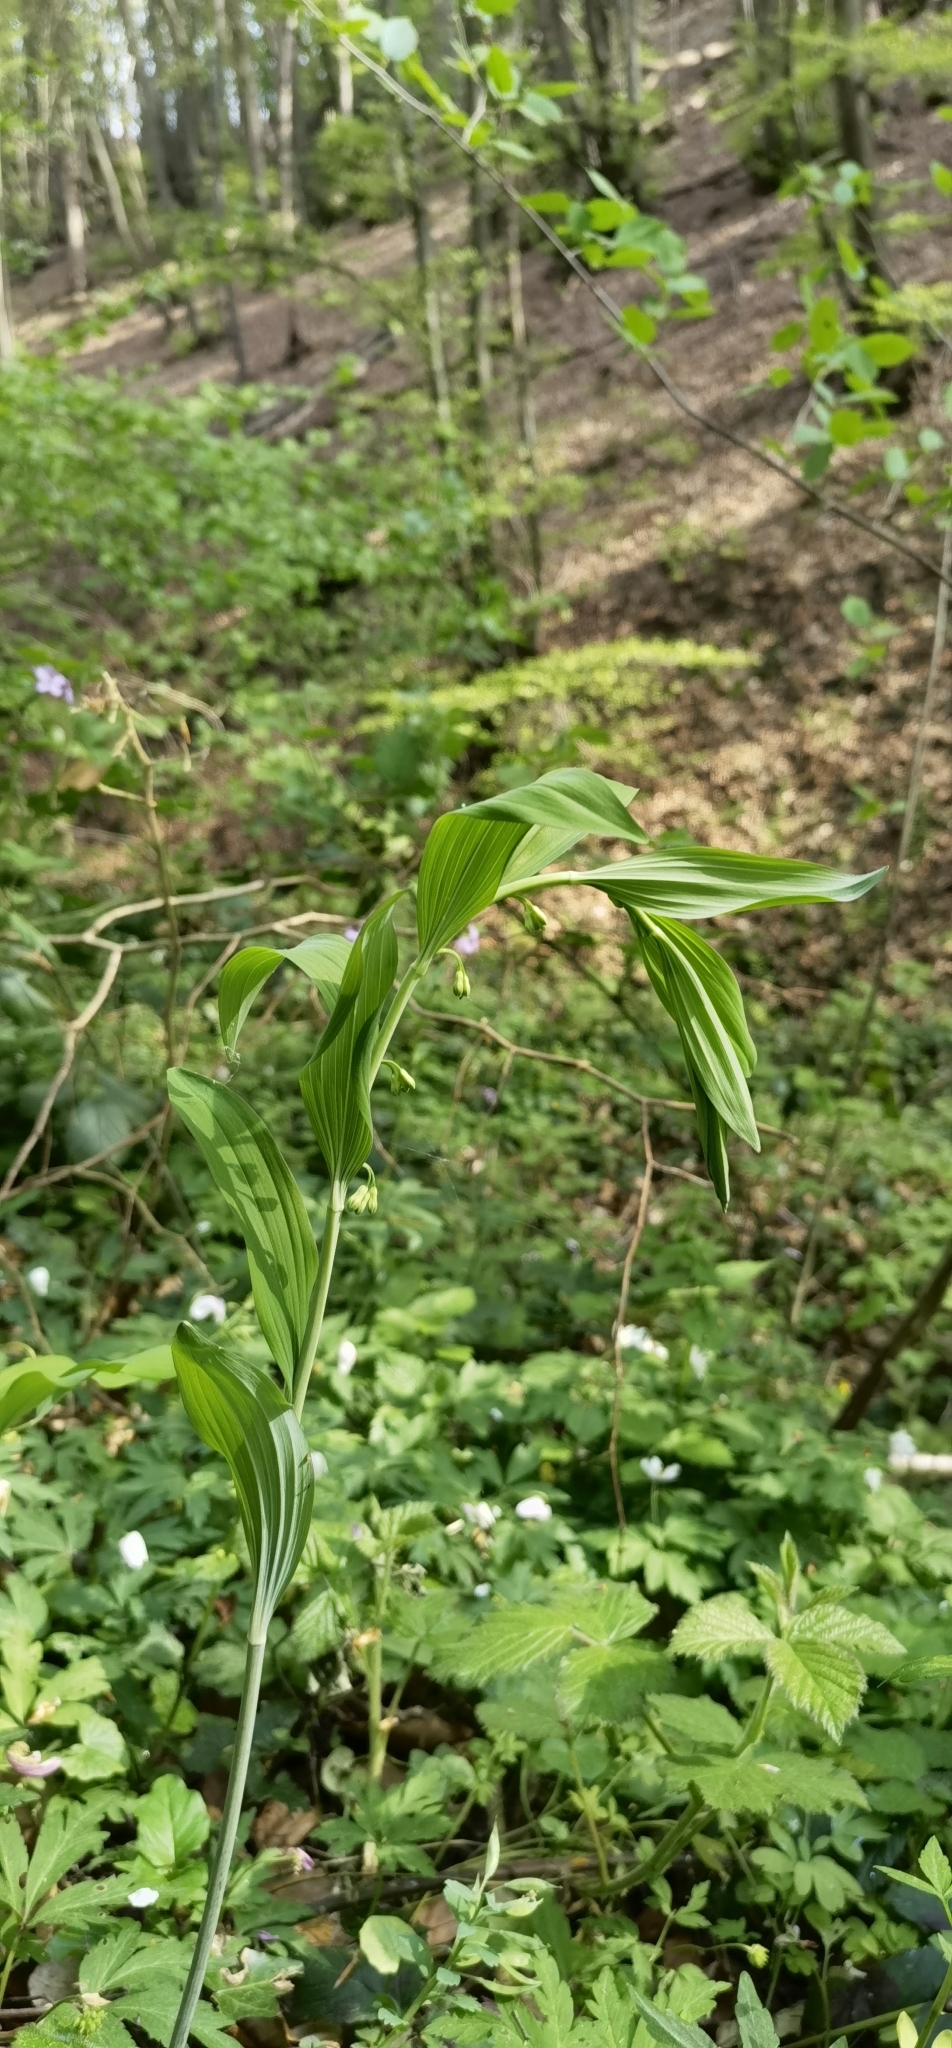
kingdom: Plantae
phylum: Tracheophyta
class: Liliopsida
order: Asparagales
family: Asparagaceae
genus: Polygonatum
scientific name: Polygonatum multiflorum
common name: Solomon's-seal
